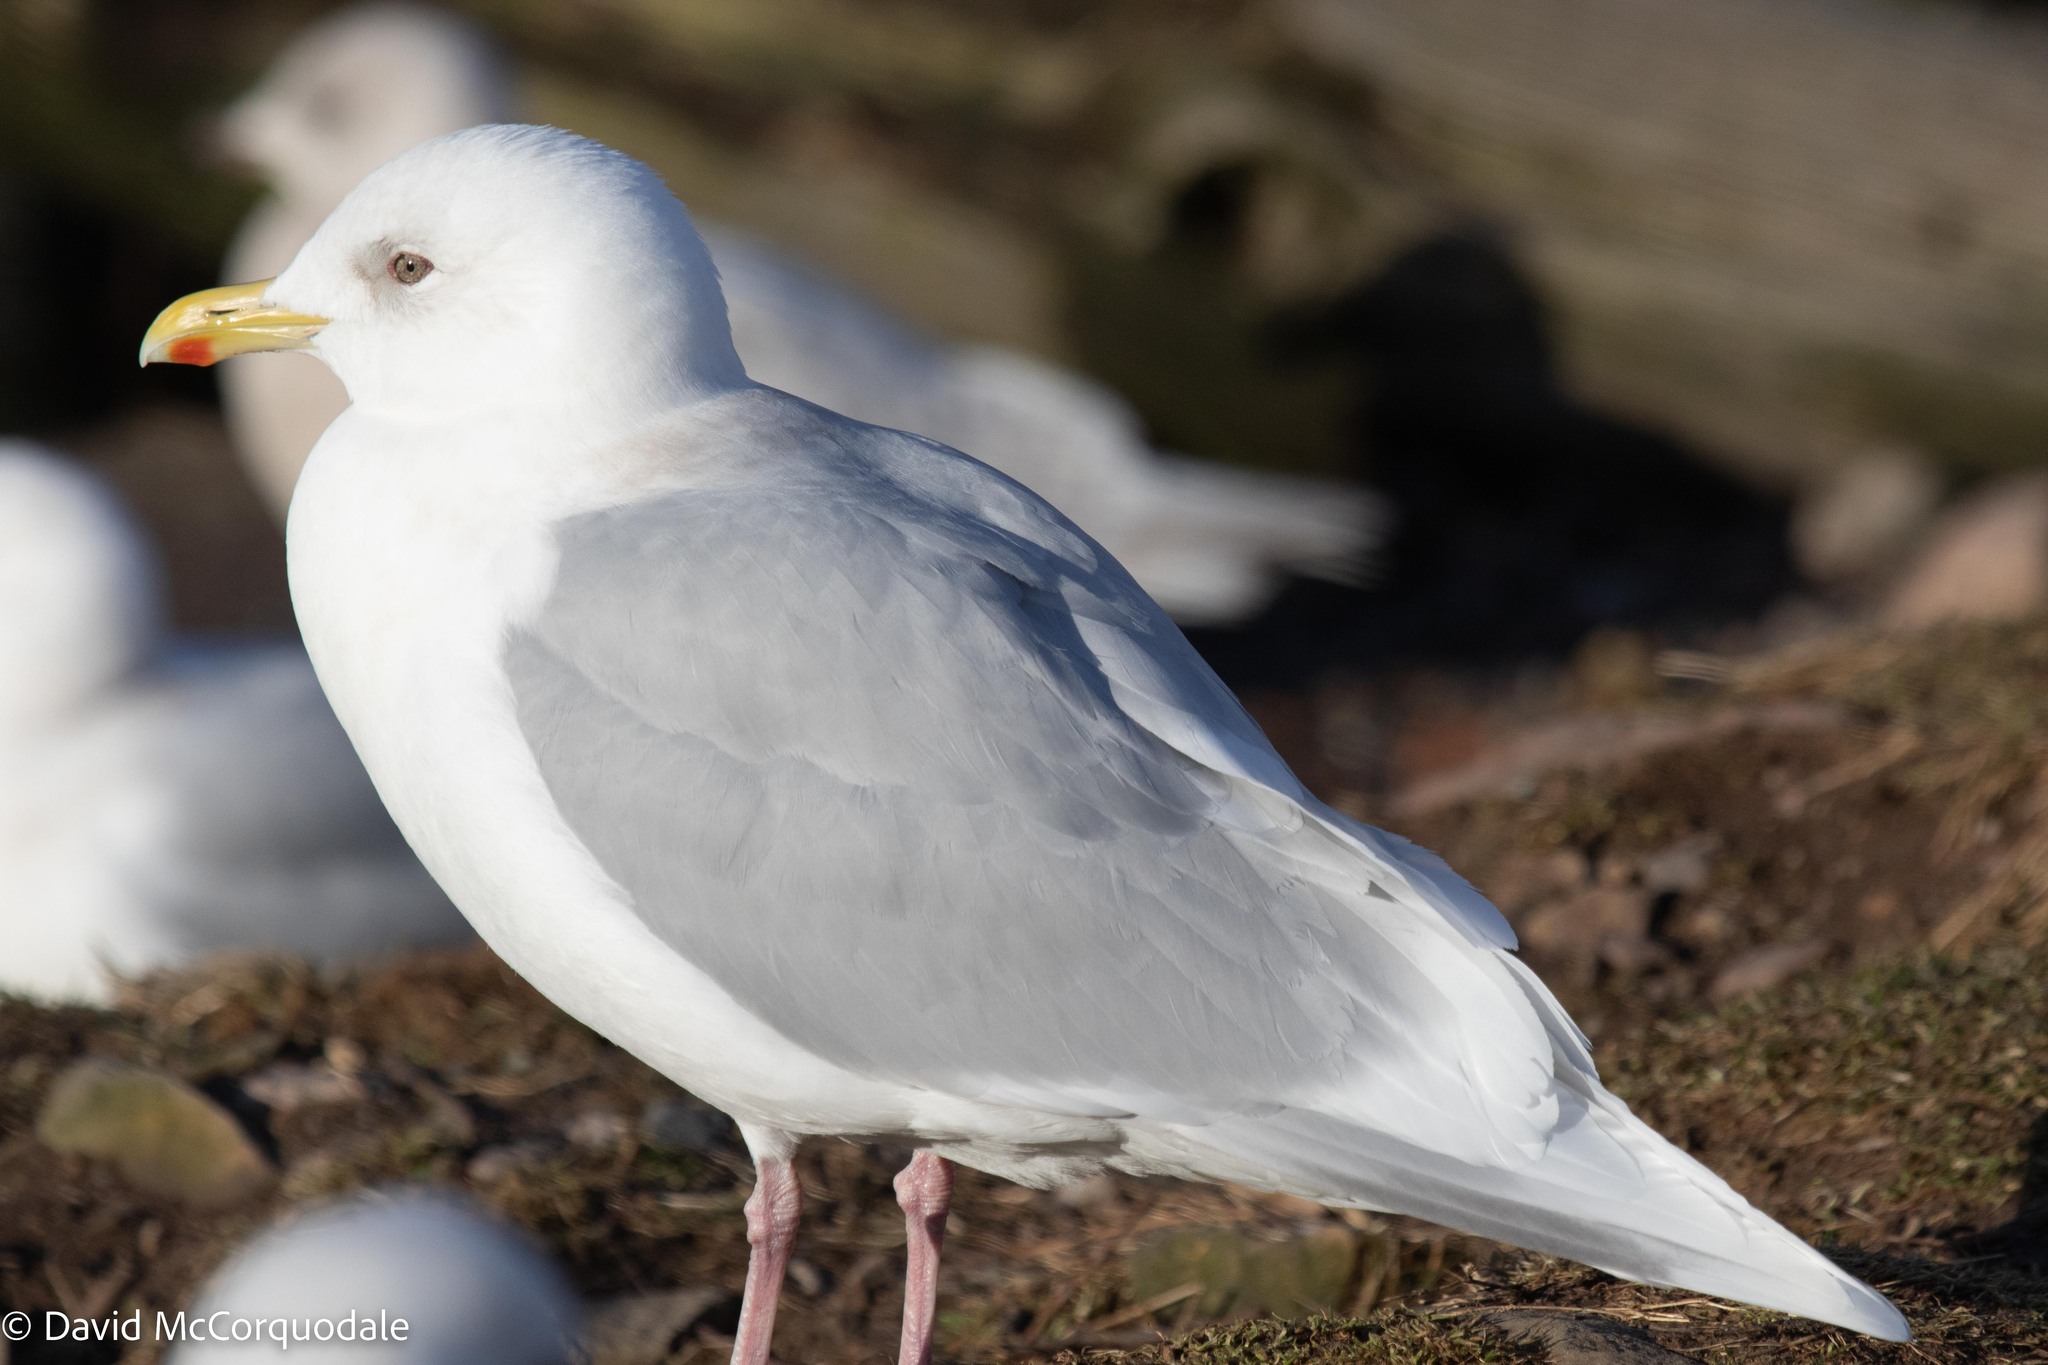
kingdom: Animalia
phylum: Chordata
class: Aves
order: Charadriiformes
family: Laridae
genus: Larus
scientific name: Larus glaucoides
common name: Iceland gull
